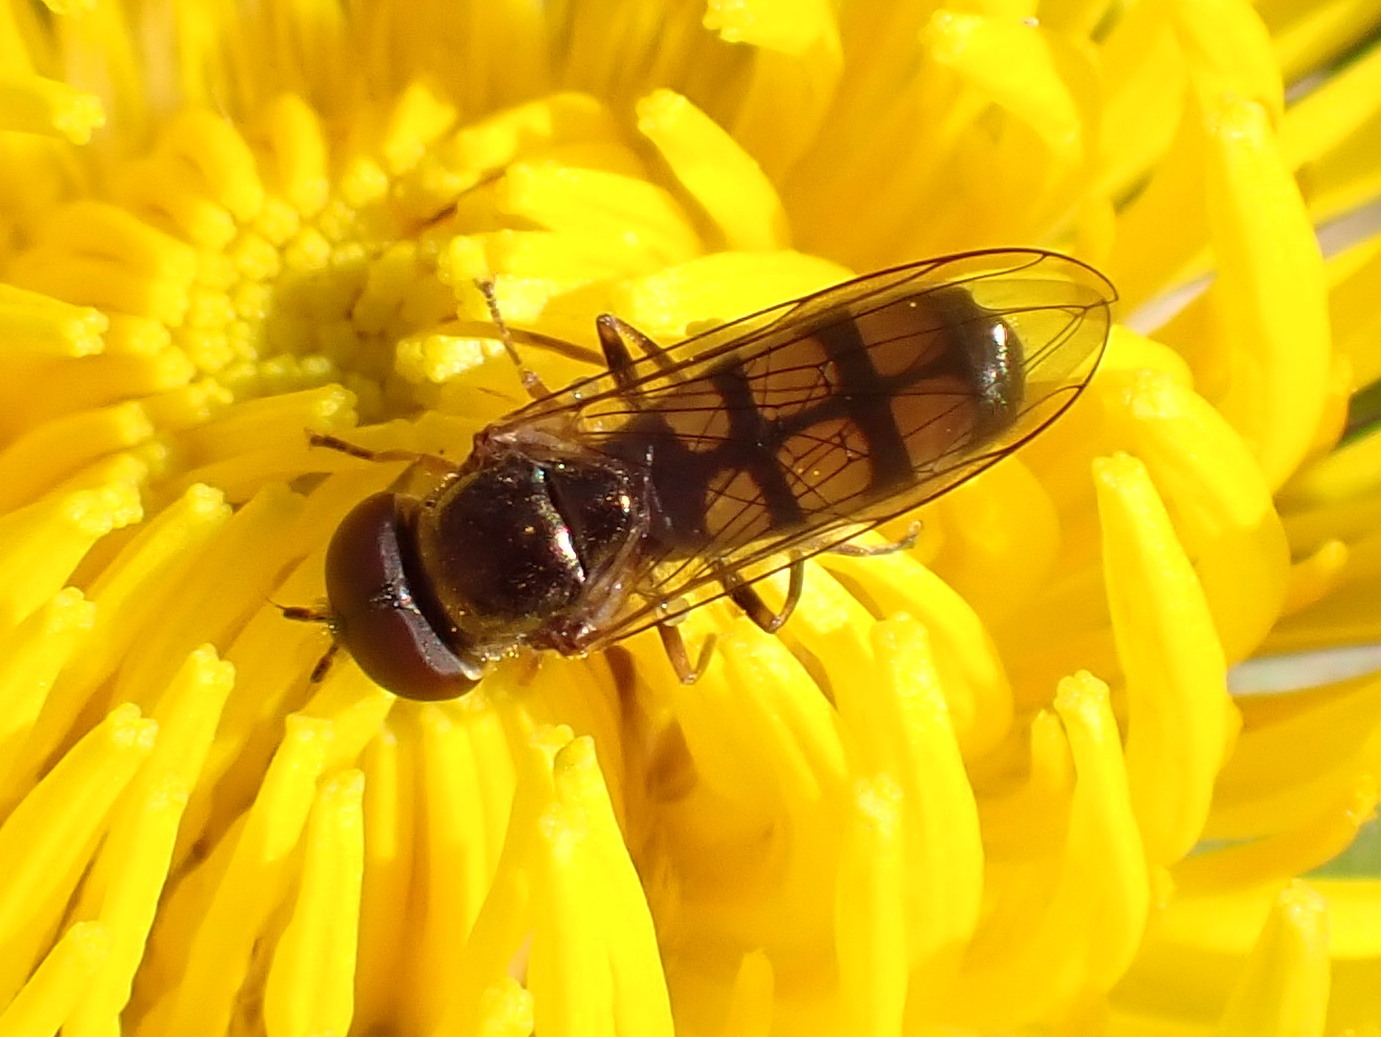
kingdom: Animalia
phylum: Arthropoda
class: Insecta
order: Diptera
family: Syrphidae
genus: Melanostoma
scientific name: Melanostoma mellina
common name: Hover fly
